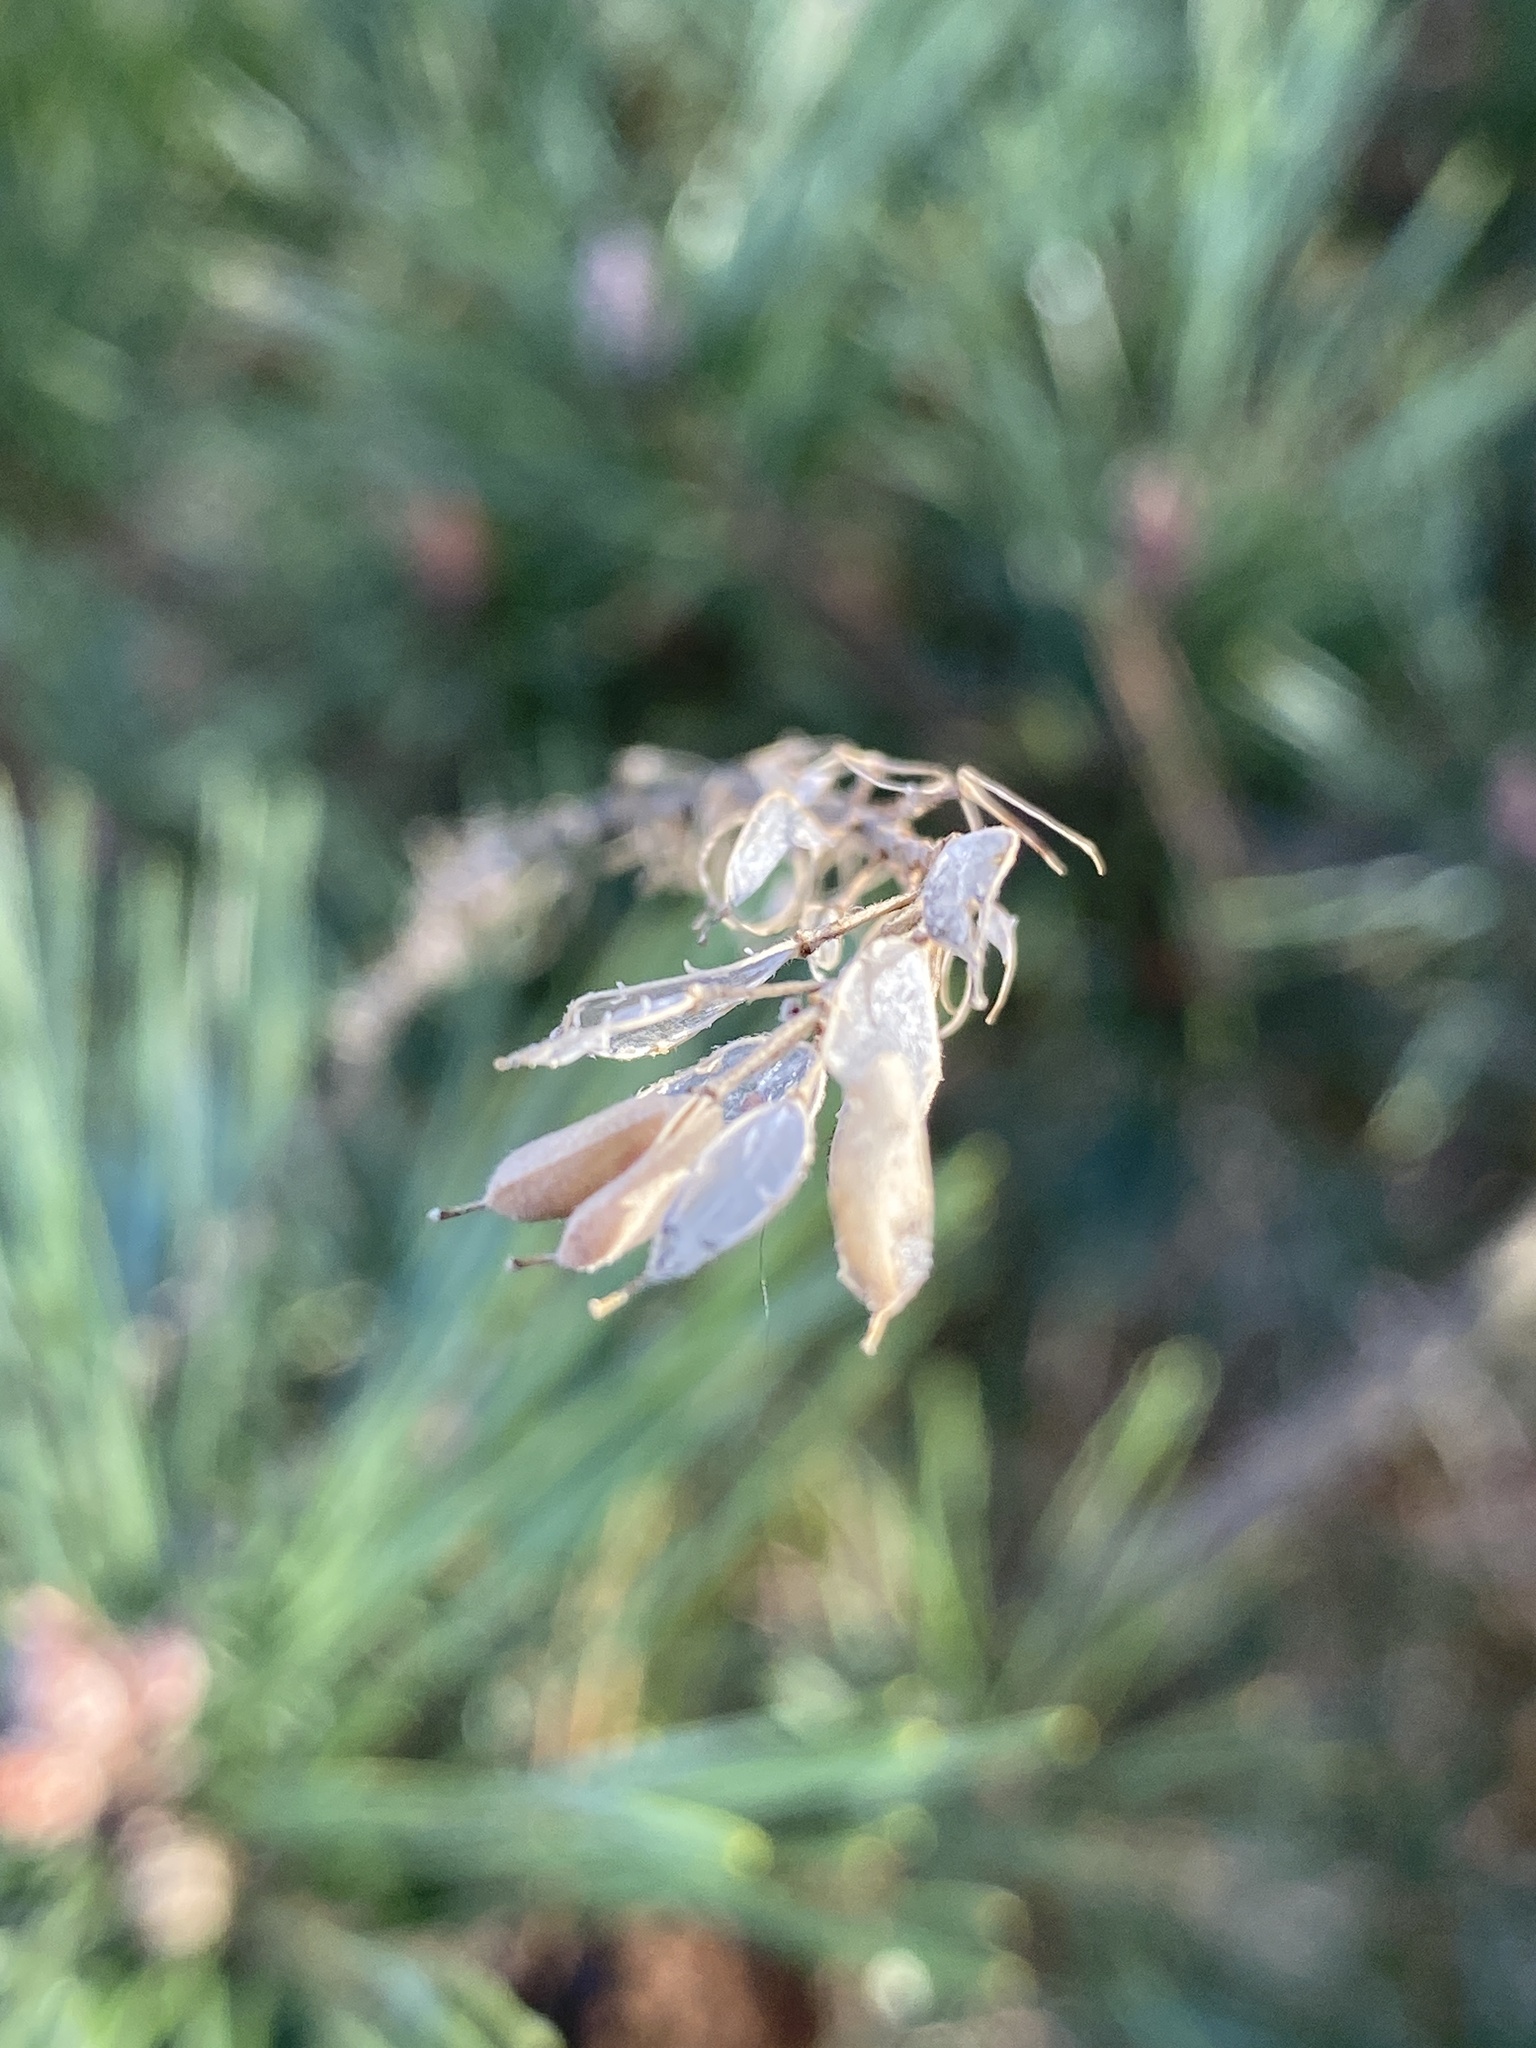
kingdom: Plantae
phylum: Tracheophyta
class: Magnoliopsida
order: Brassicales
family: Brassicaceae
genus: Berteroa
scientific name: Berteroa incana
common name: Hoary alison
